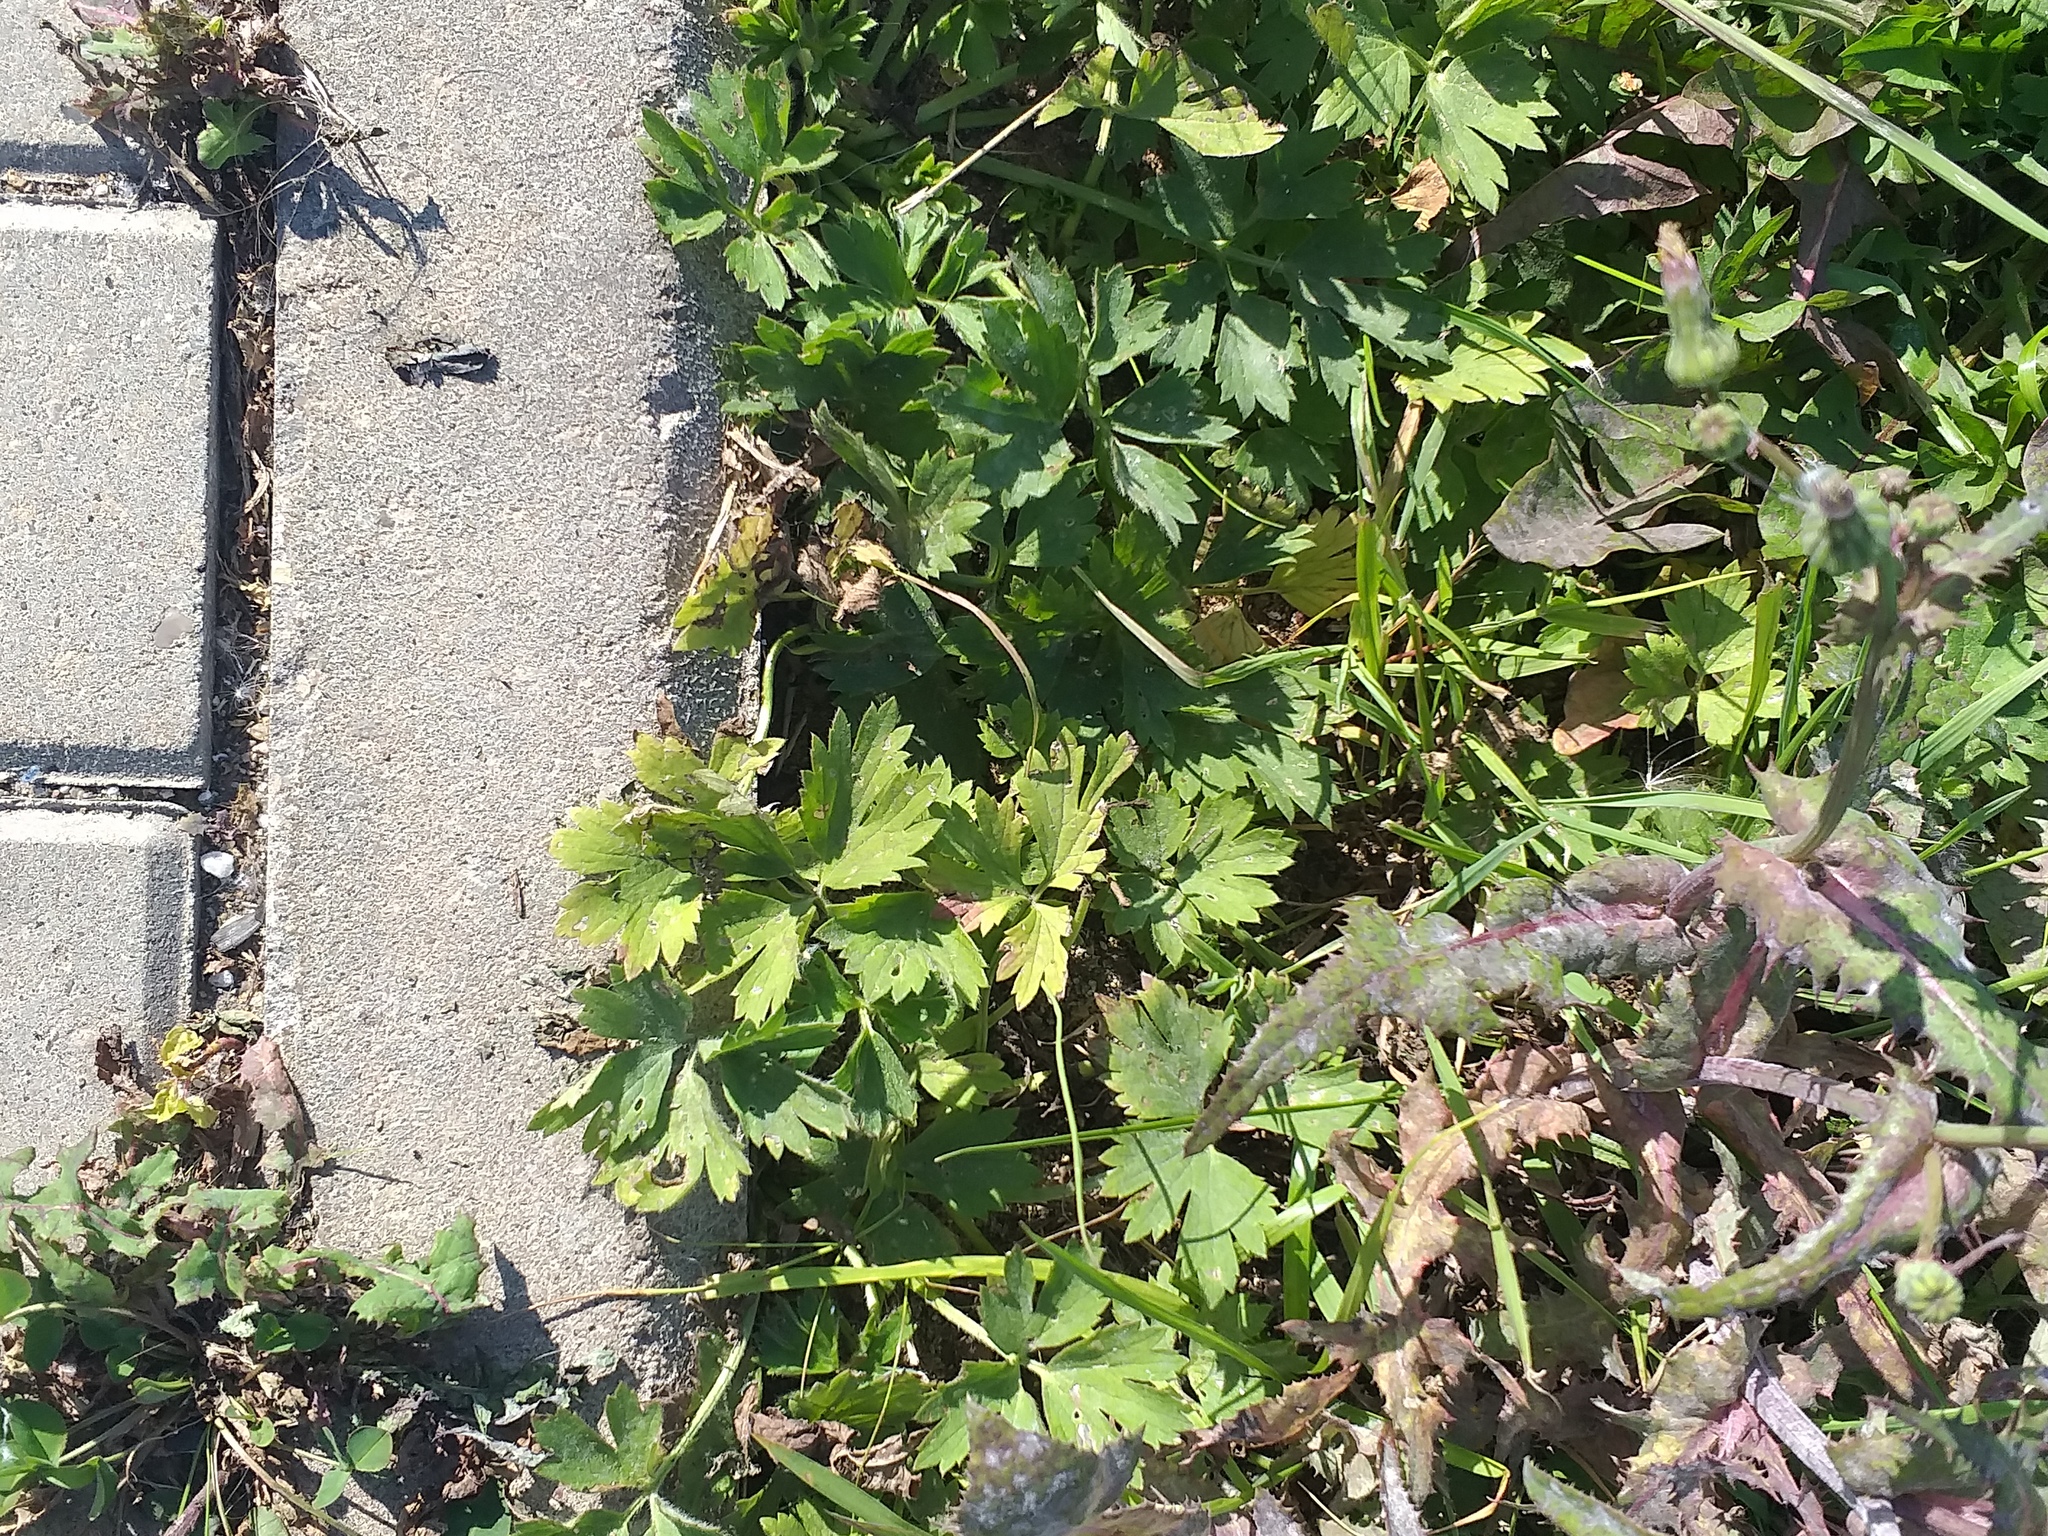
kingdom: Plantae
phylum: Tracheophyta
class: Magnoliopsida
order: Ranunculales
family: Ranunculaceae
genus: Ranunculus
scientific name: Ranunculus repens
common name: Creeping buttercup
